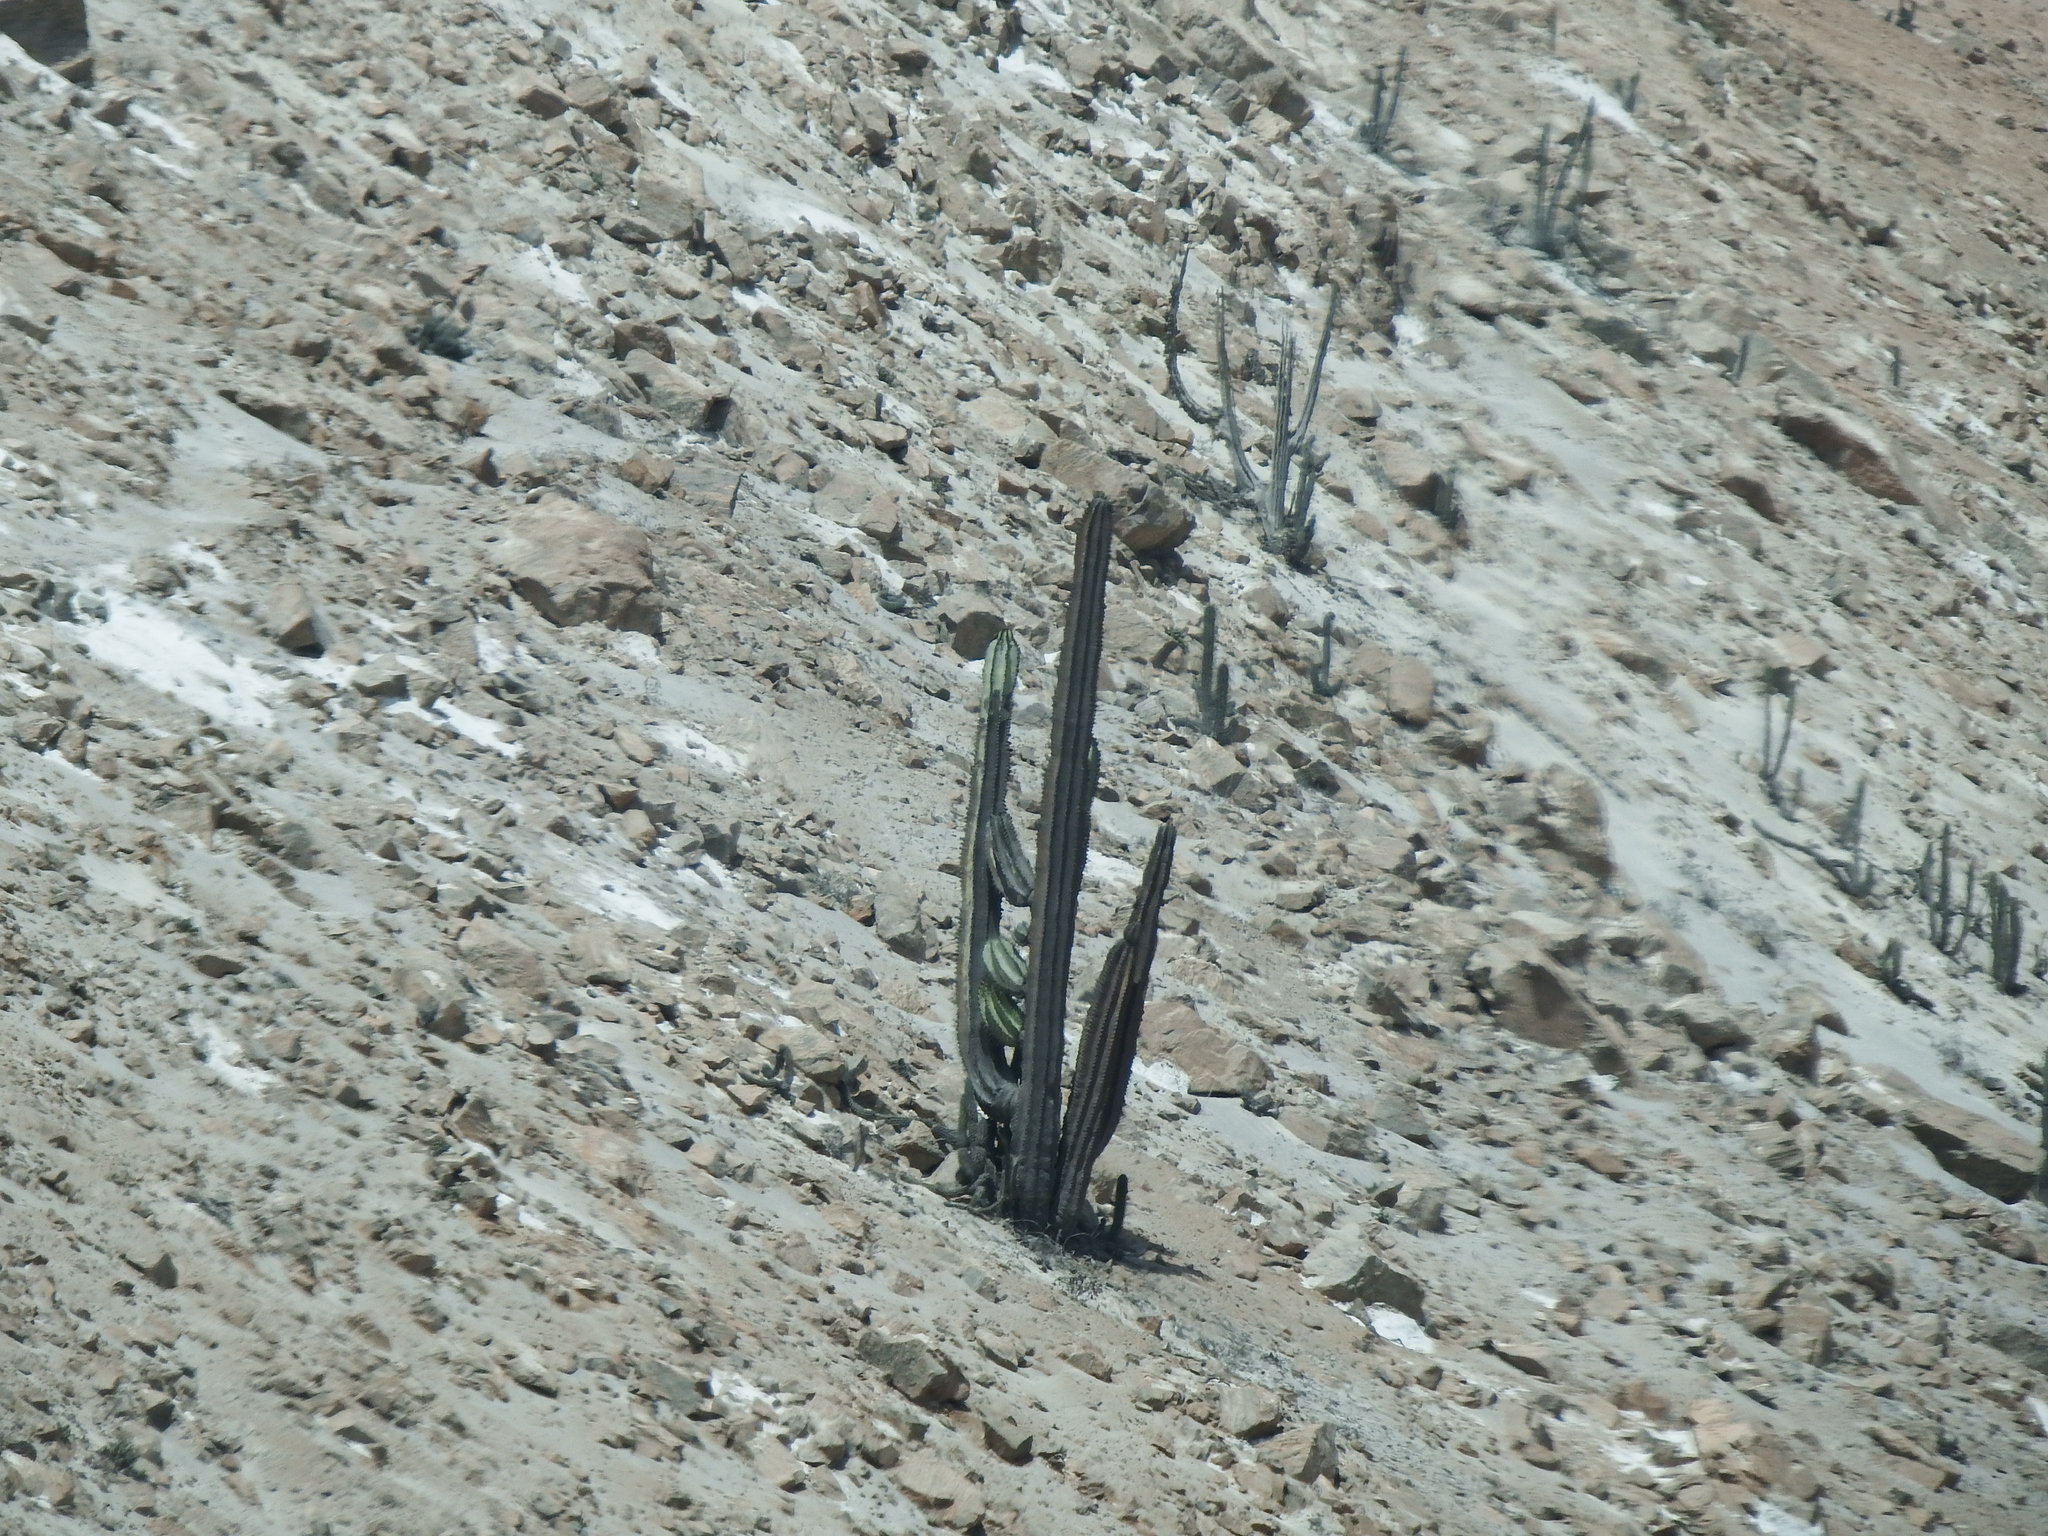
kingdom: Plantae
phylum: Tracheophyta
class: Magnoliopsida
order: Caryophyllales
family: Cactaceae
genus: Neoraimondia
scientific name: Neoraimondia arequipensis
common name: Big-bed-of-straw
